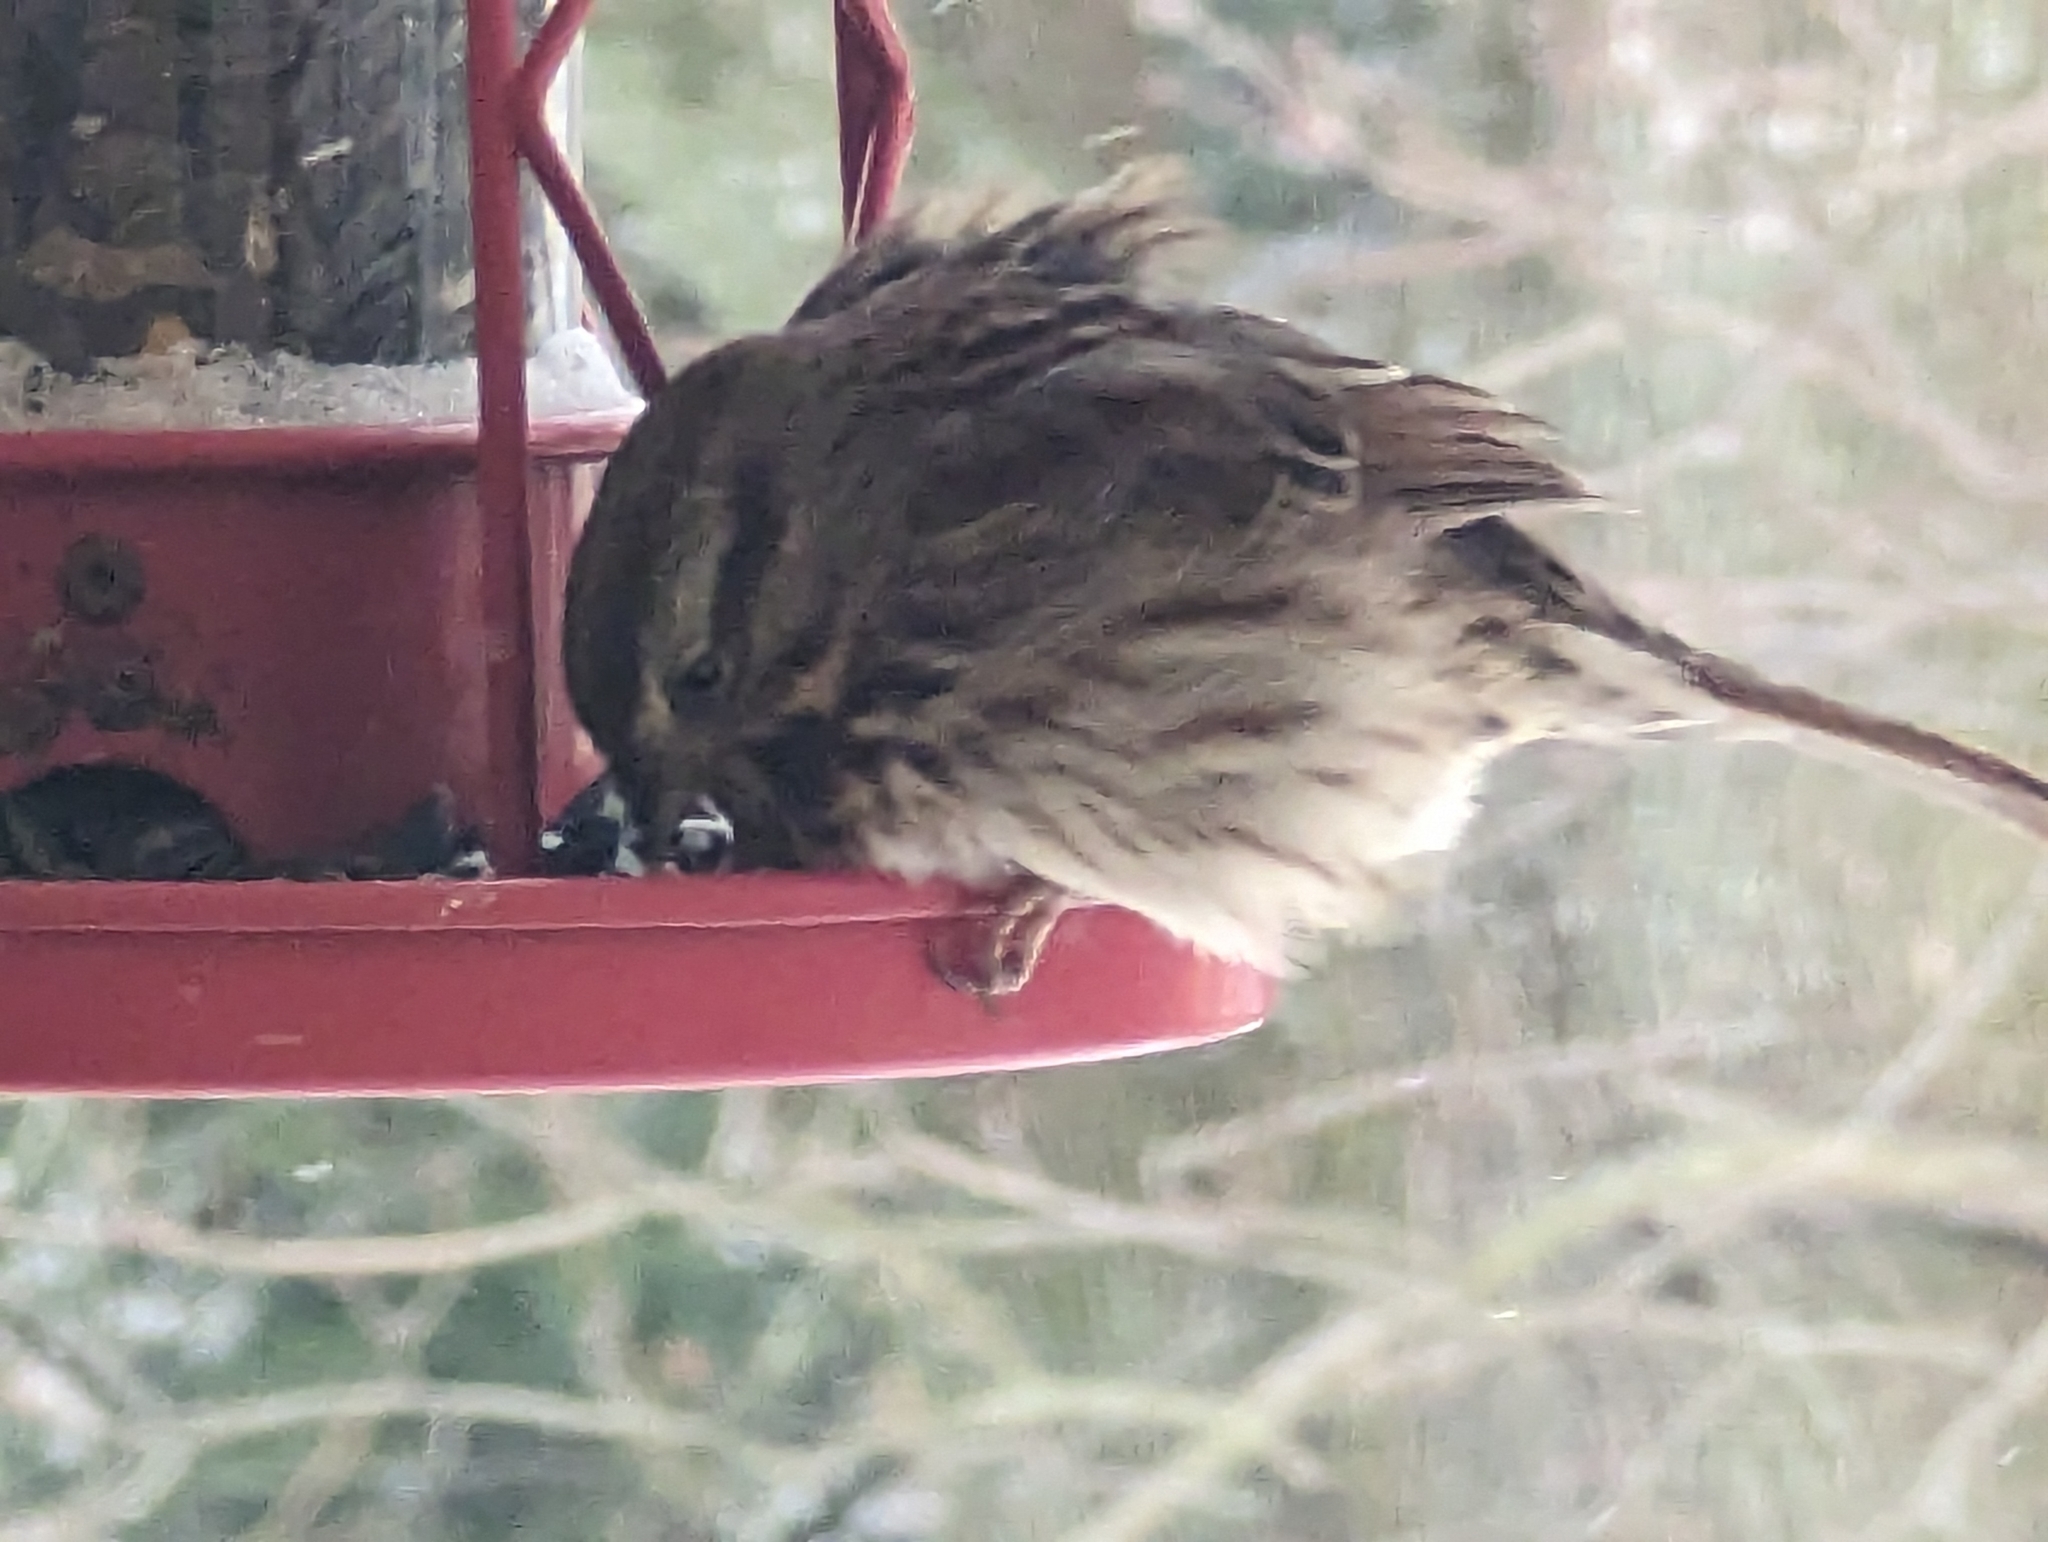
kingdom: Animalia
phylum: Chordata
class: Aves
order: Passeriformes
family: Passerellidae
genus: Melospiza
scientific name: Melospiza melodia
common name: Song sparrow
